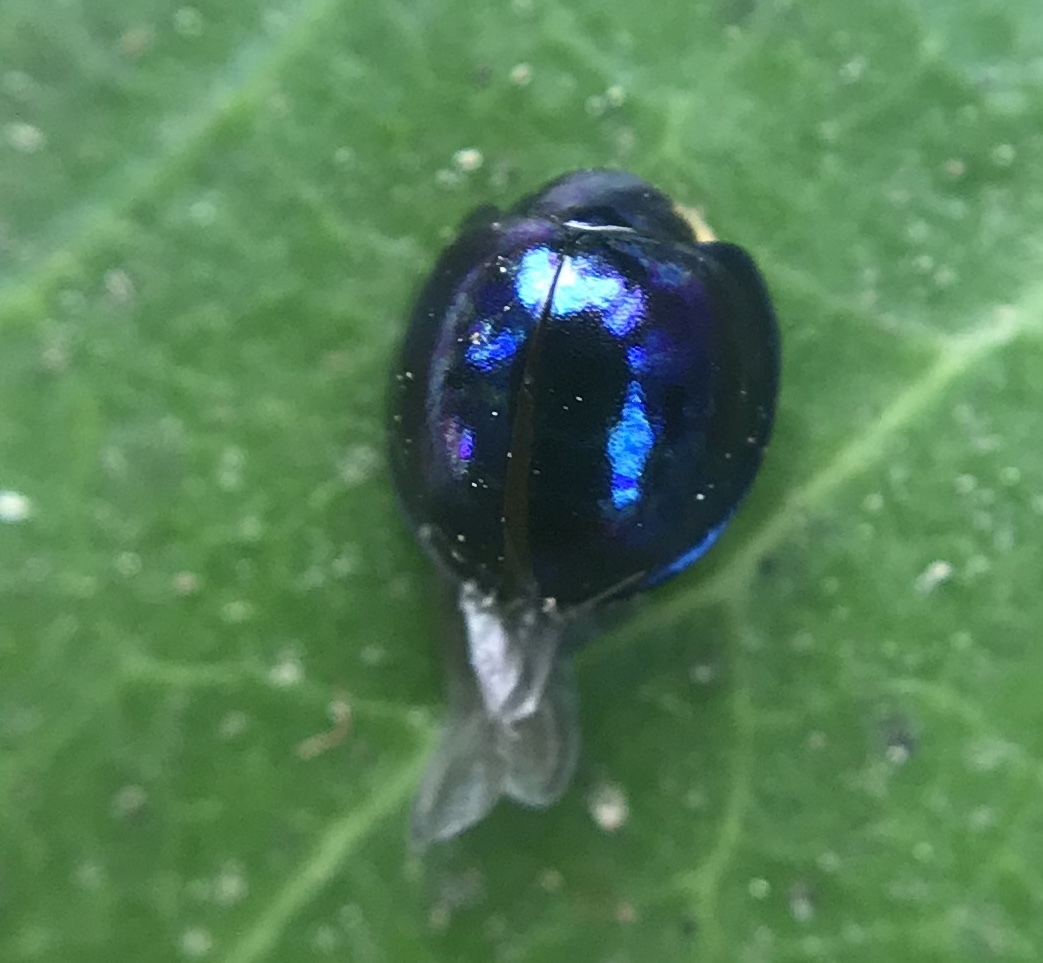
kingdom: Animalia
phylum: Arthropoda
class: Insecta
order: Coleoptera
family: Coccinellidae
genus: Halmus
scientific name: Halmus chalybeus
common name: Steel blue ladybird beetle
